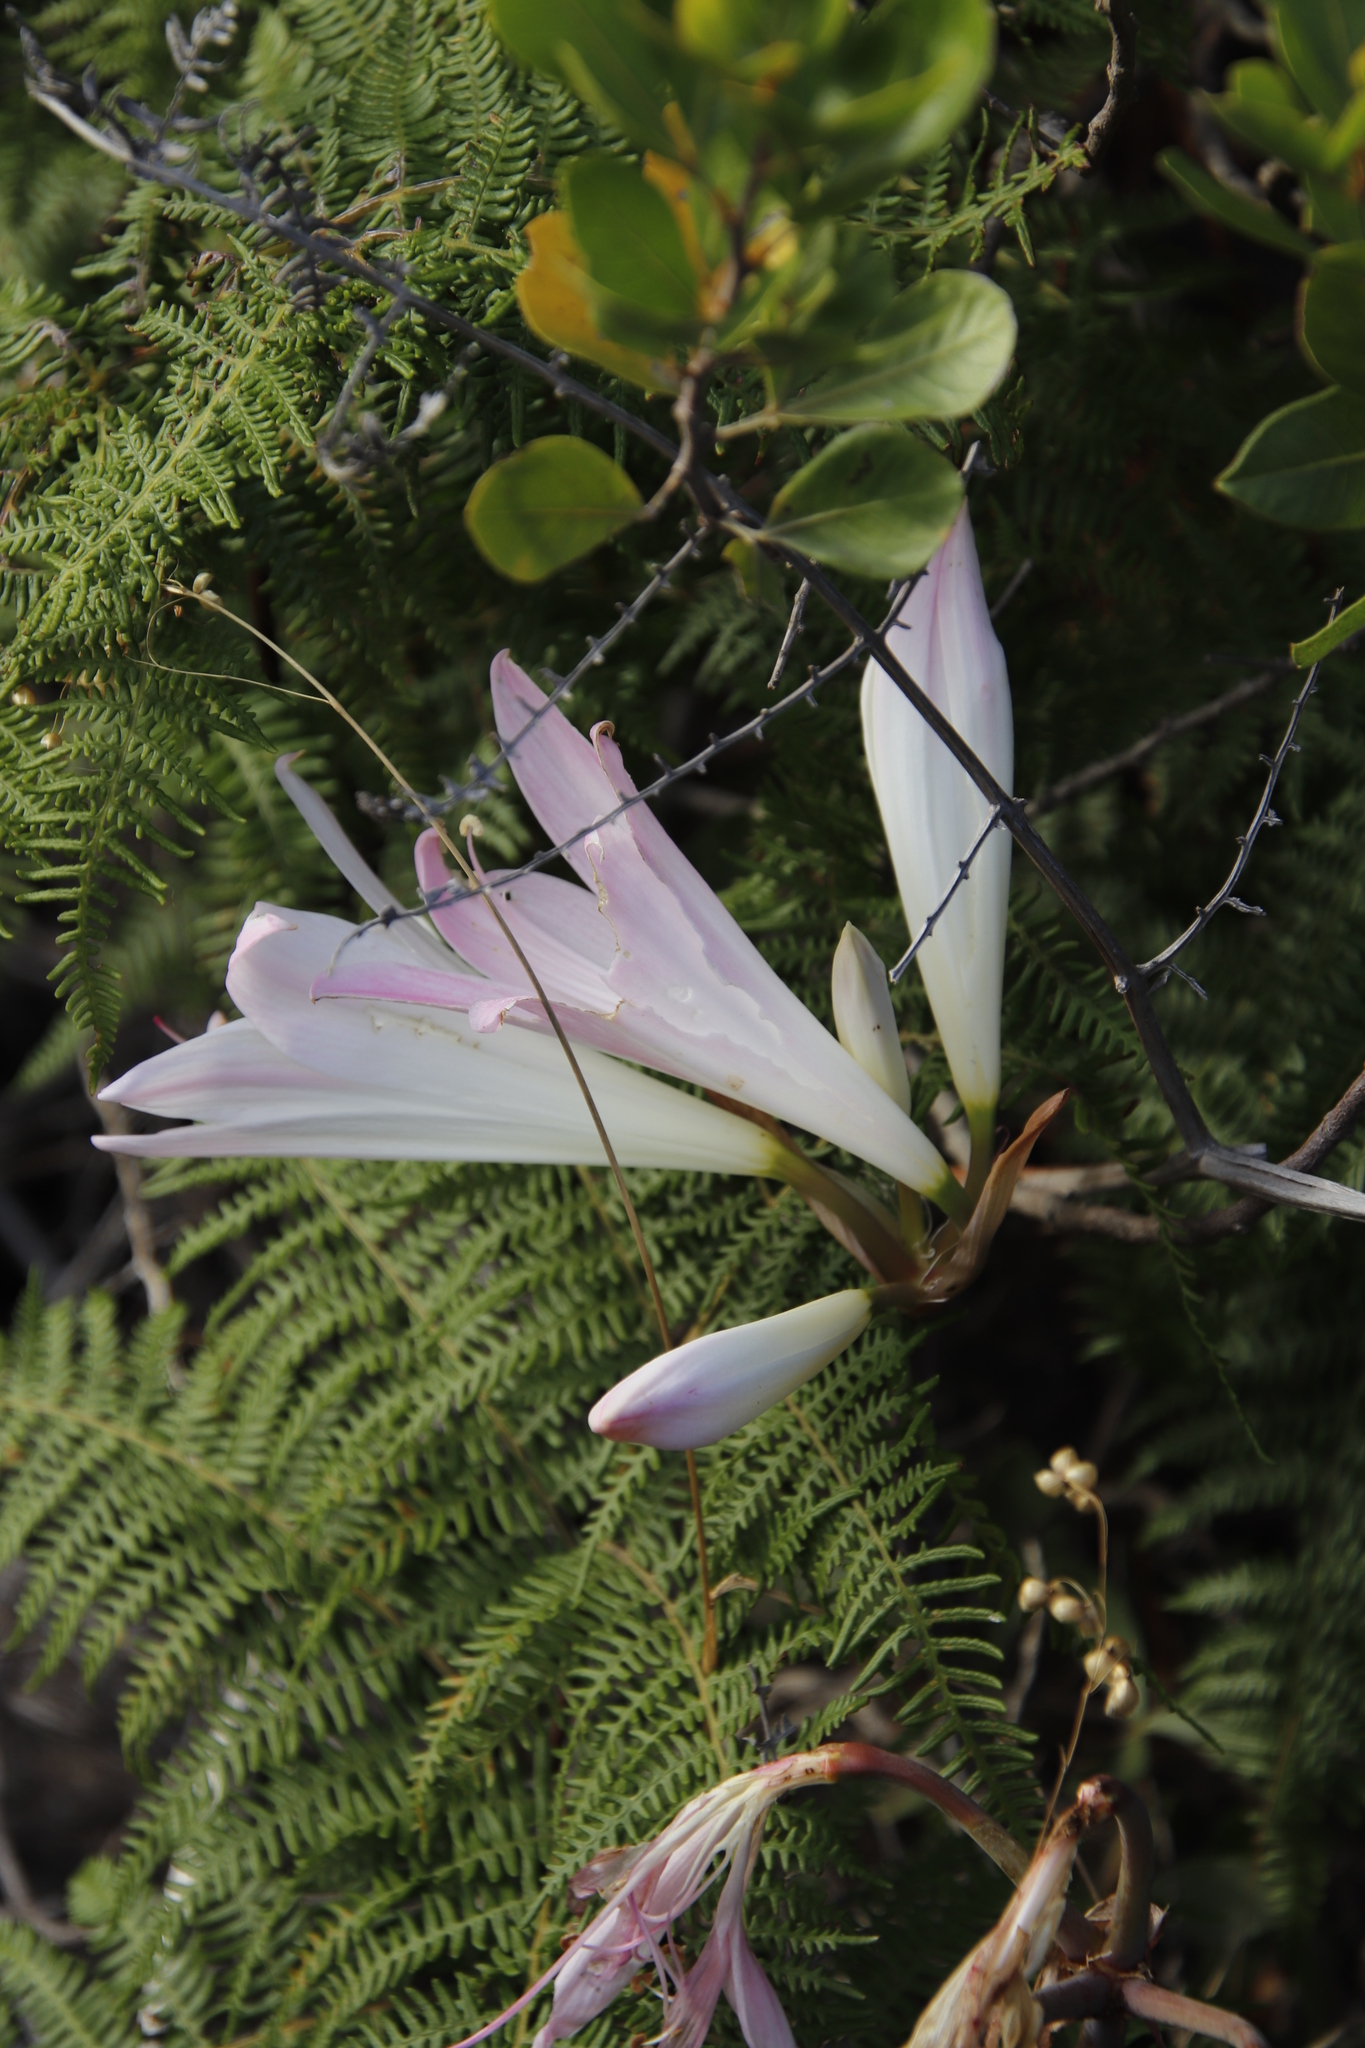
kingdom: Plantae
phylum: Tracheophyta
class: Liliopsida
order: Asparagales
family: Amaryllidaceae
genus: Amaryllis
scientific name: Amaryllis belladonna
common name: Jersey lily
